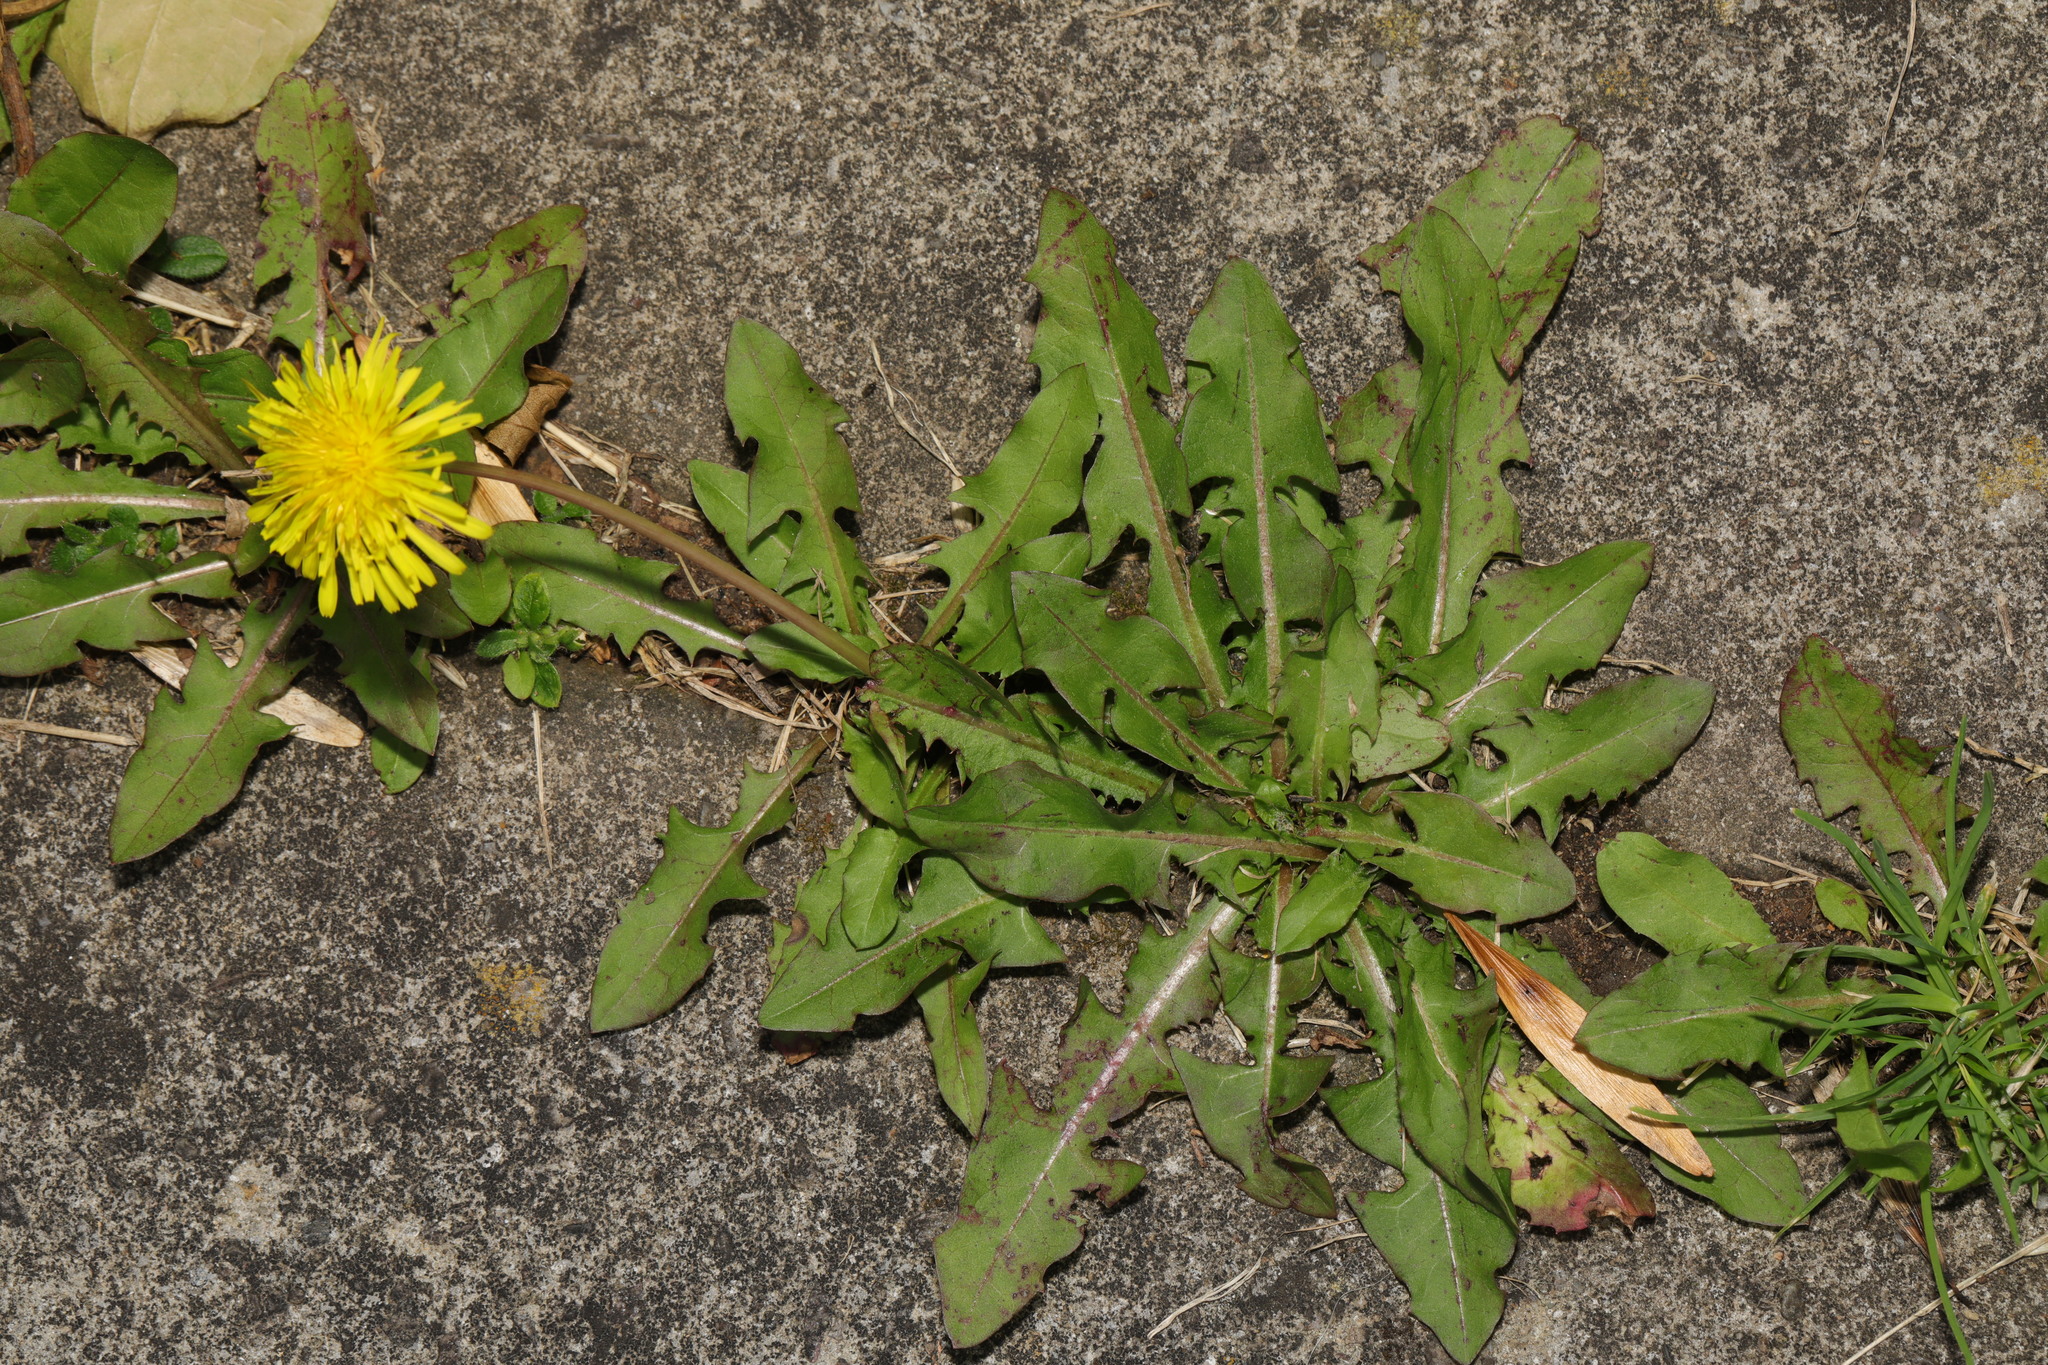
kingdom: Plantae
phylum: Tracheophyta
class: Magnoliopsida
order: Asterales
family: Asteraceae
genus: Taraxacum
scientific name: Taraxacum officinale
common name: Common dandelion
